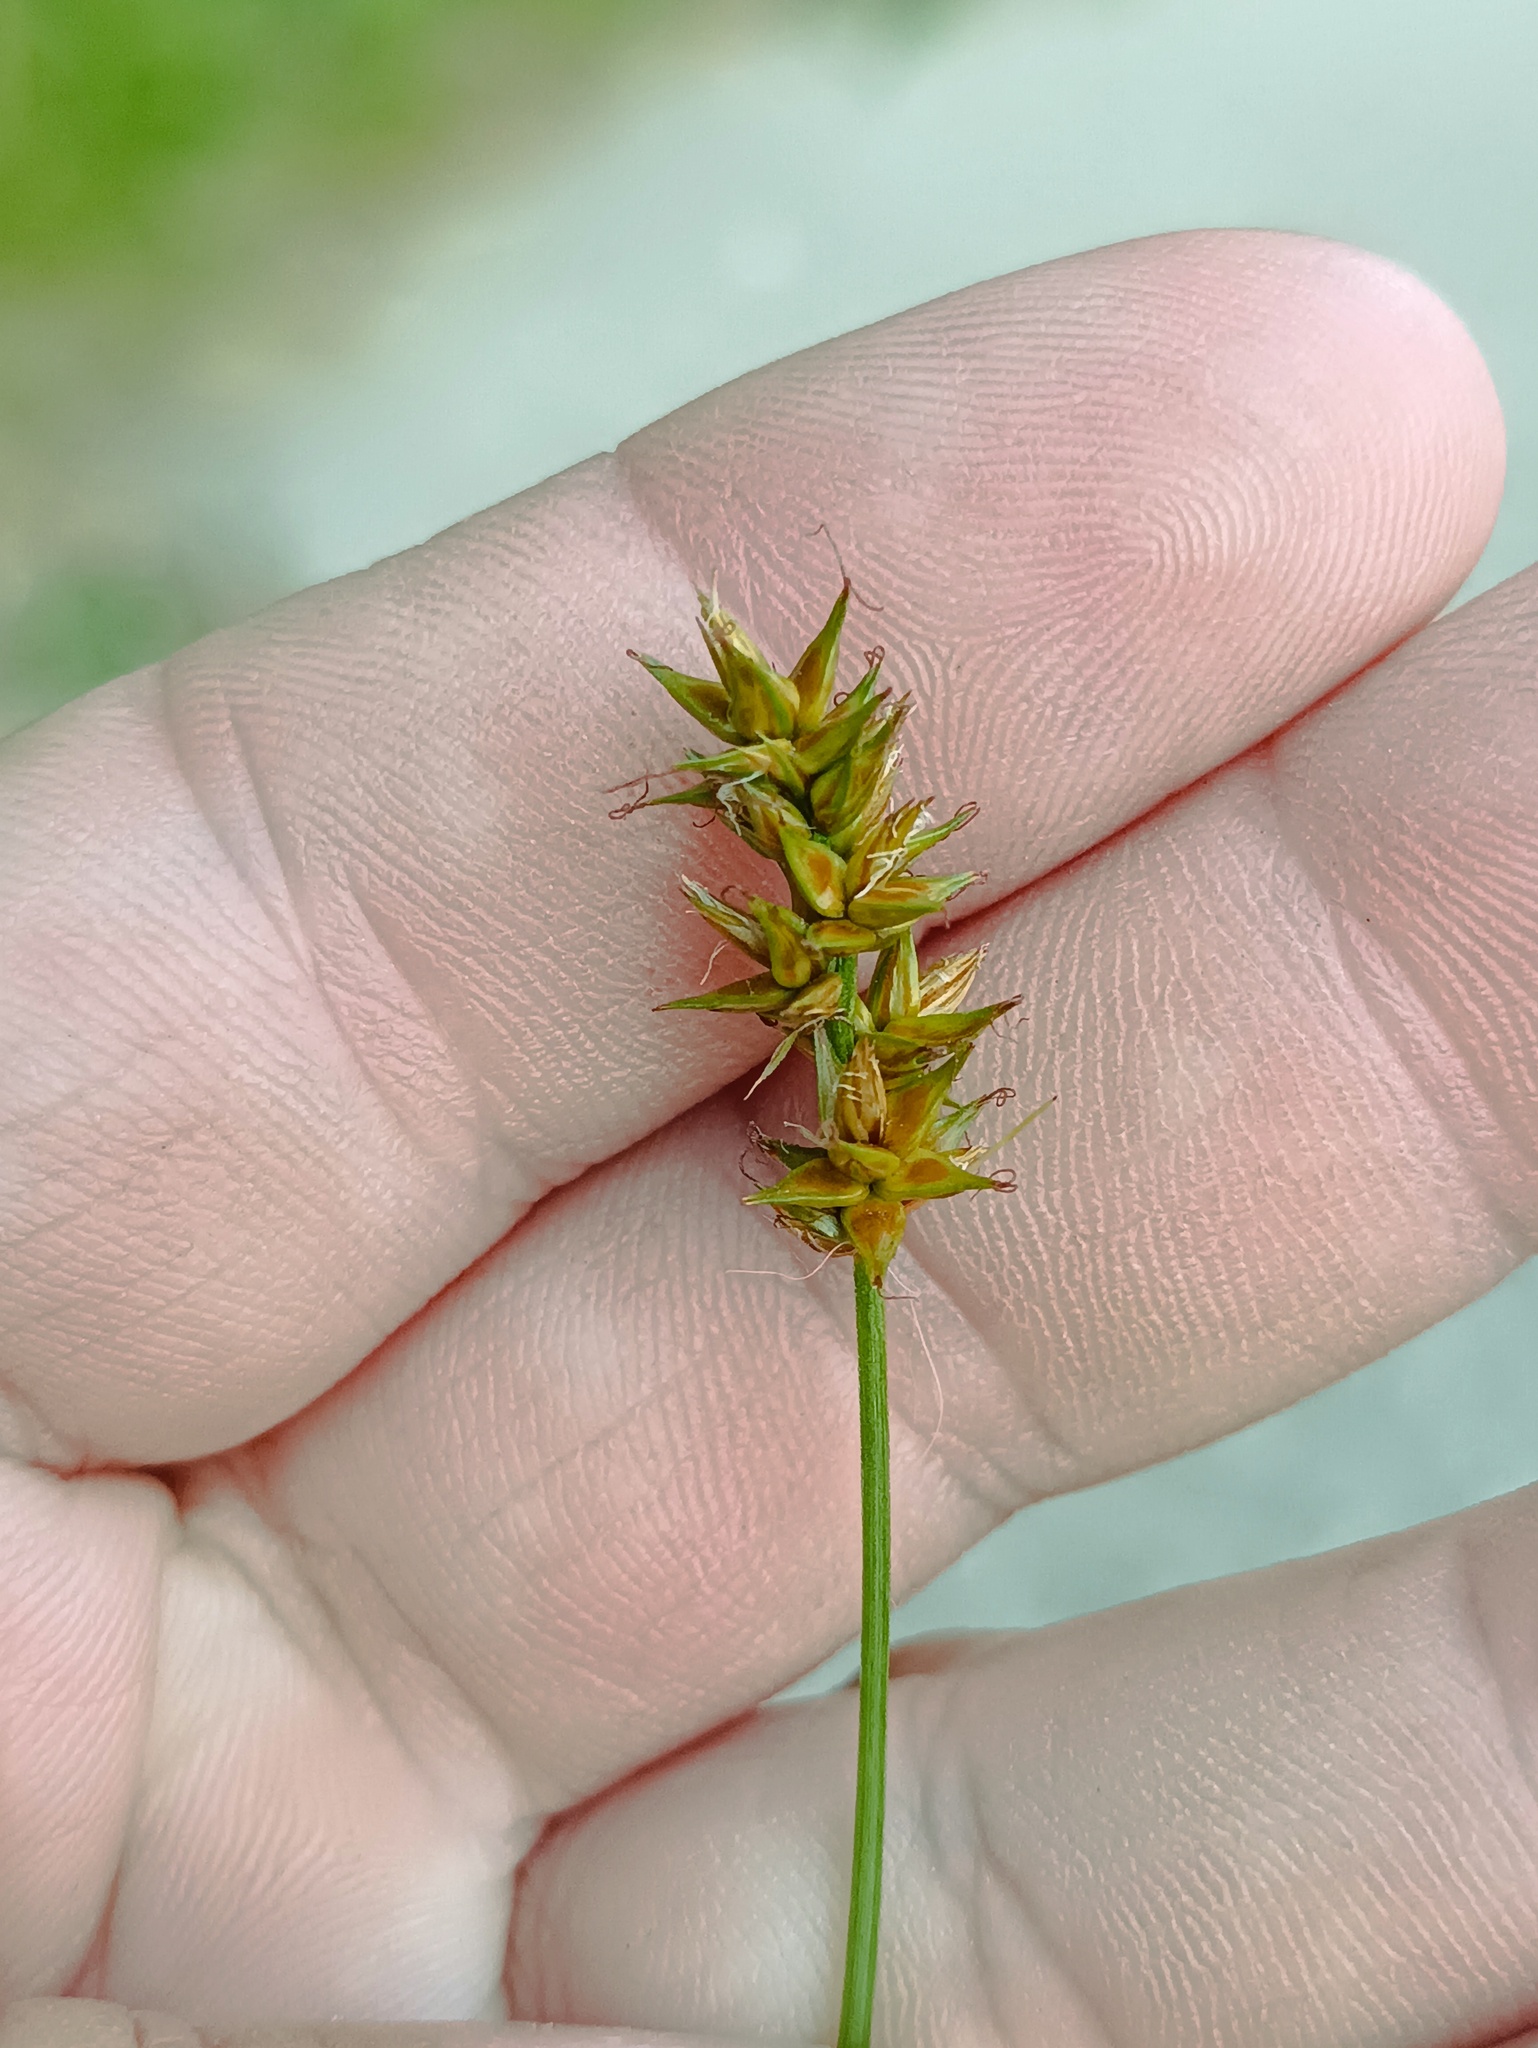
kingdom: Plantae
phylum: Tracheophyta
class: Liliopsida
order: Poales
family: Cyperaceae
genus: Carex
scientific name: Carex spicata
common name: Spiked sedge
